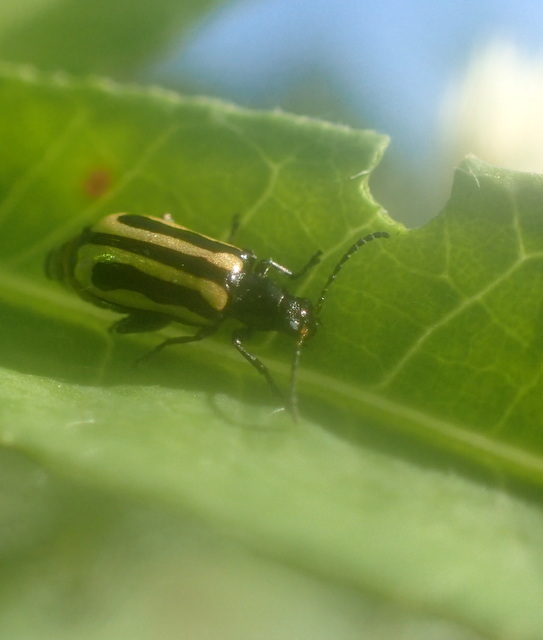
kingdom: Animalia
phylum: Arthropoda
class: Insecta
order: Coleoptera
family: Chrysomelidae
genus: Agasicles
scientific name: Agasicles hygrophila
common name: Alligatorweed flea beetle
